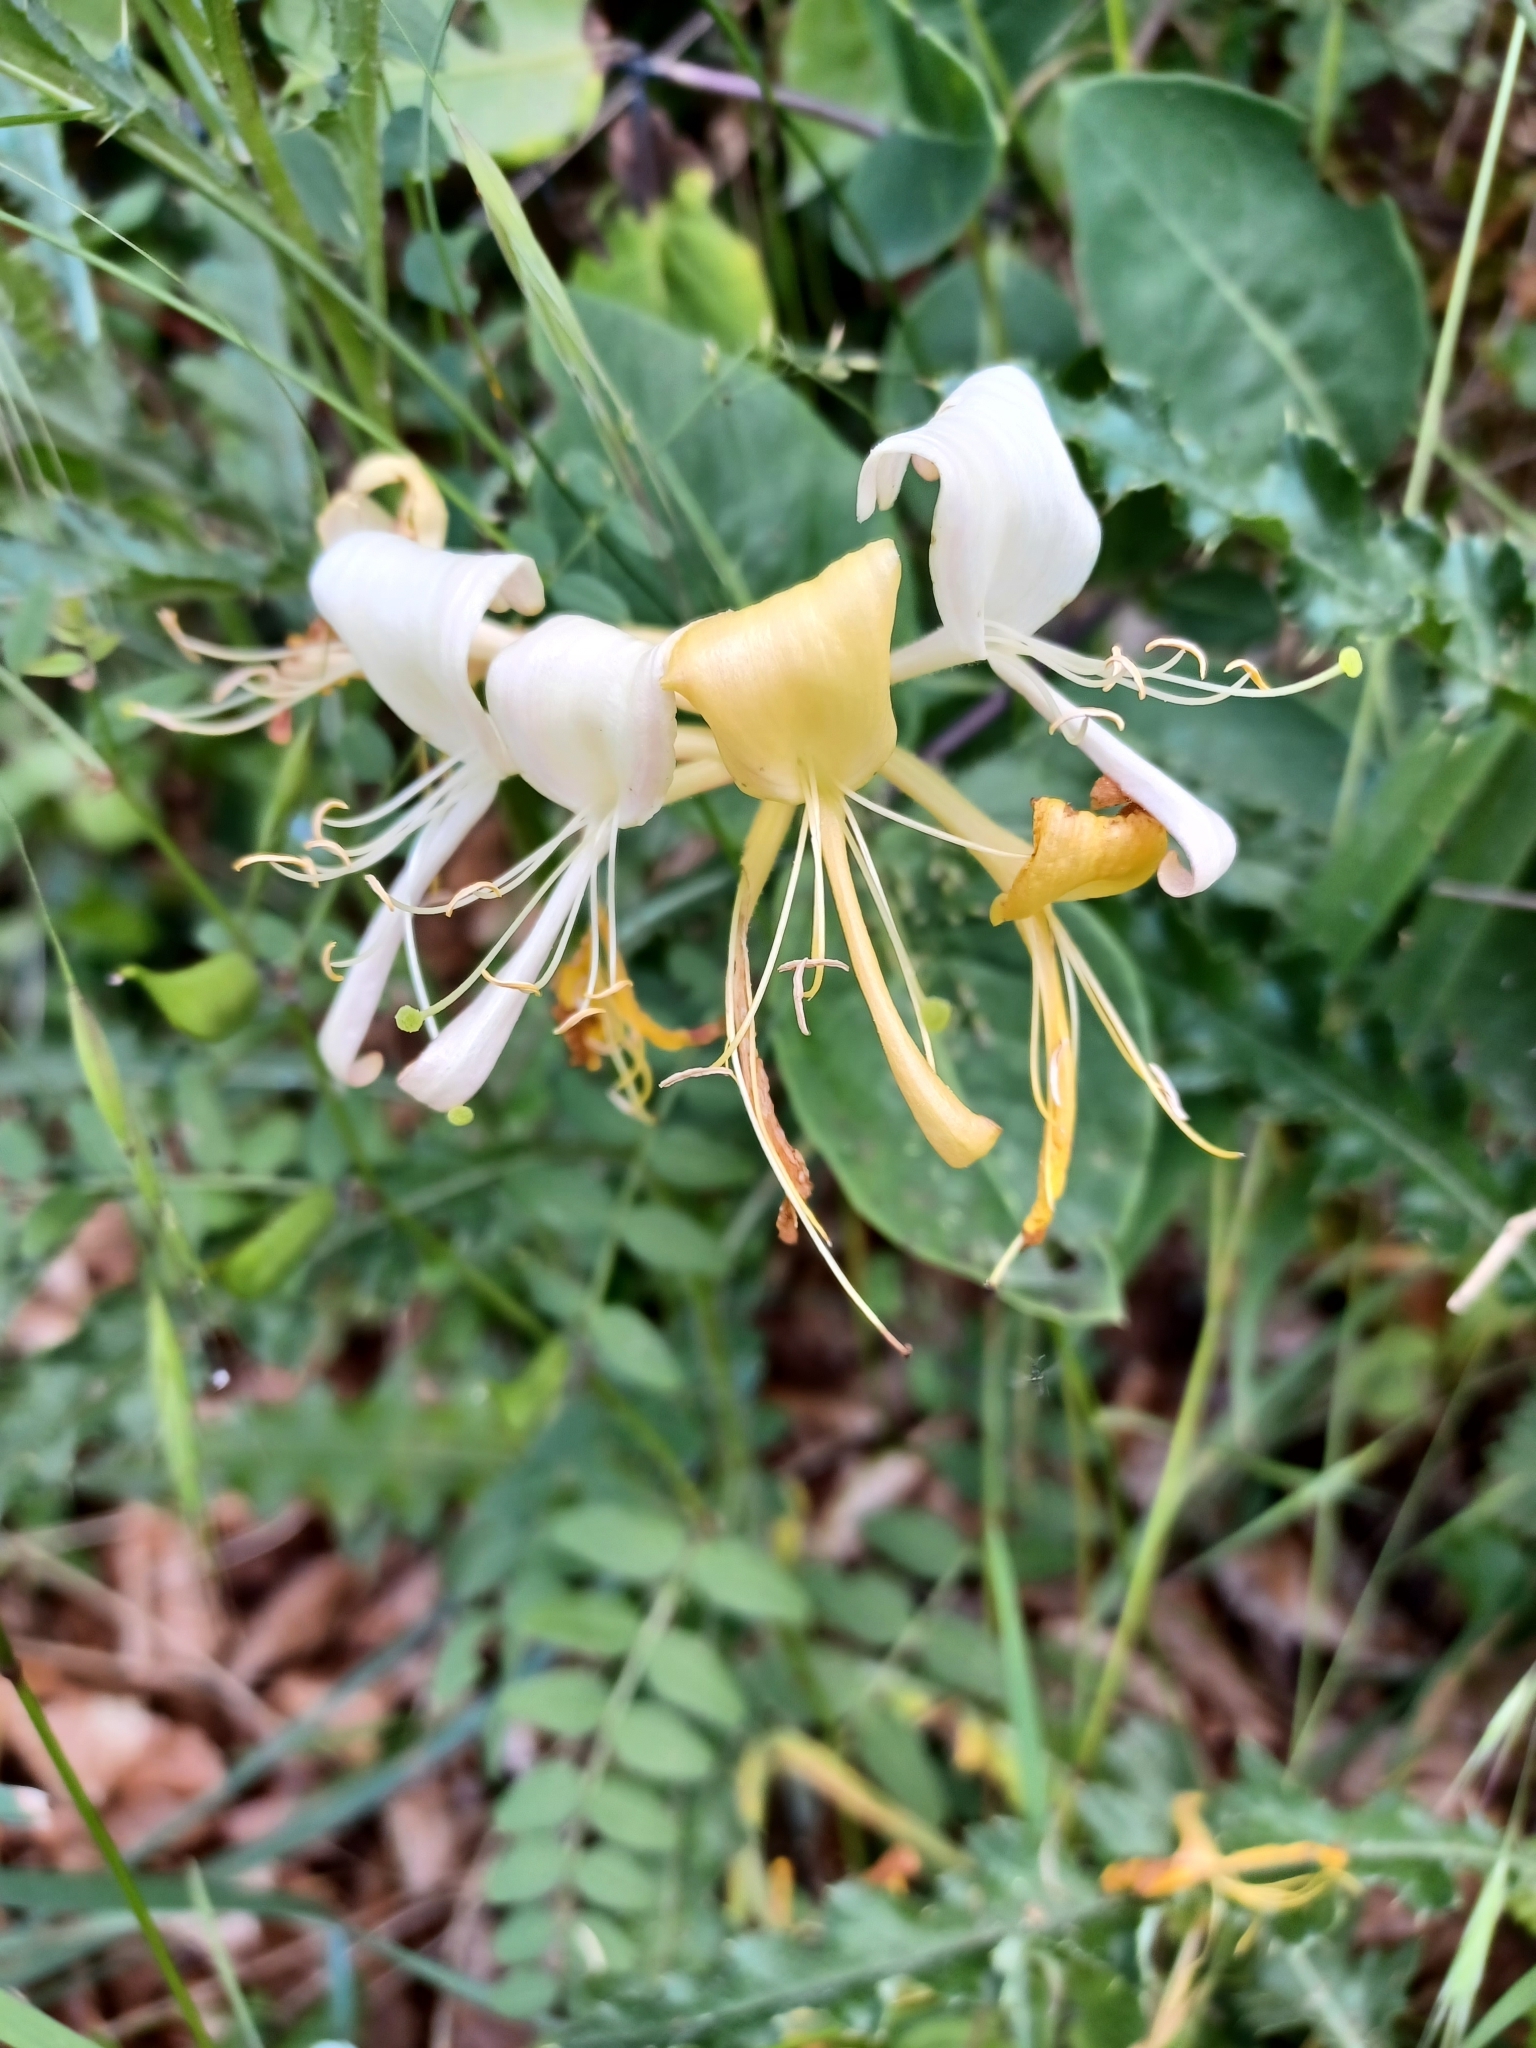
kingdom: Plantae
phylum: Tracheophyta
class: Magnoliopsida
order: Dipsacales
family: Caprifoliaceae
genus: Lonicera
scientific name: Lonicera periclymenum
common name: European honeysuckle
